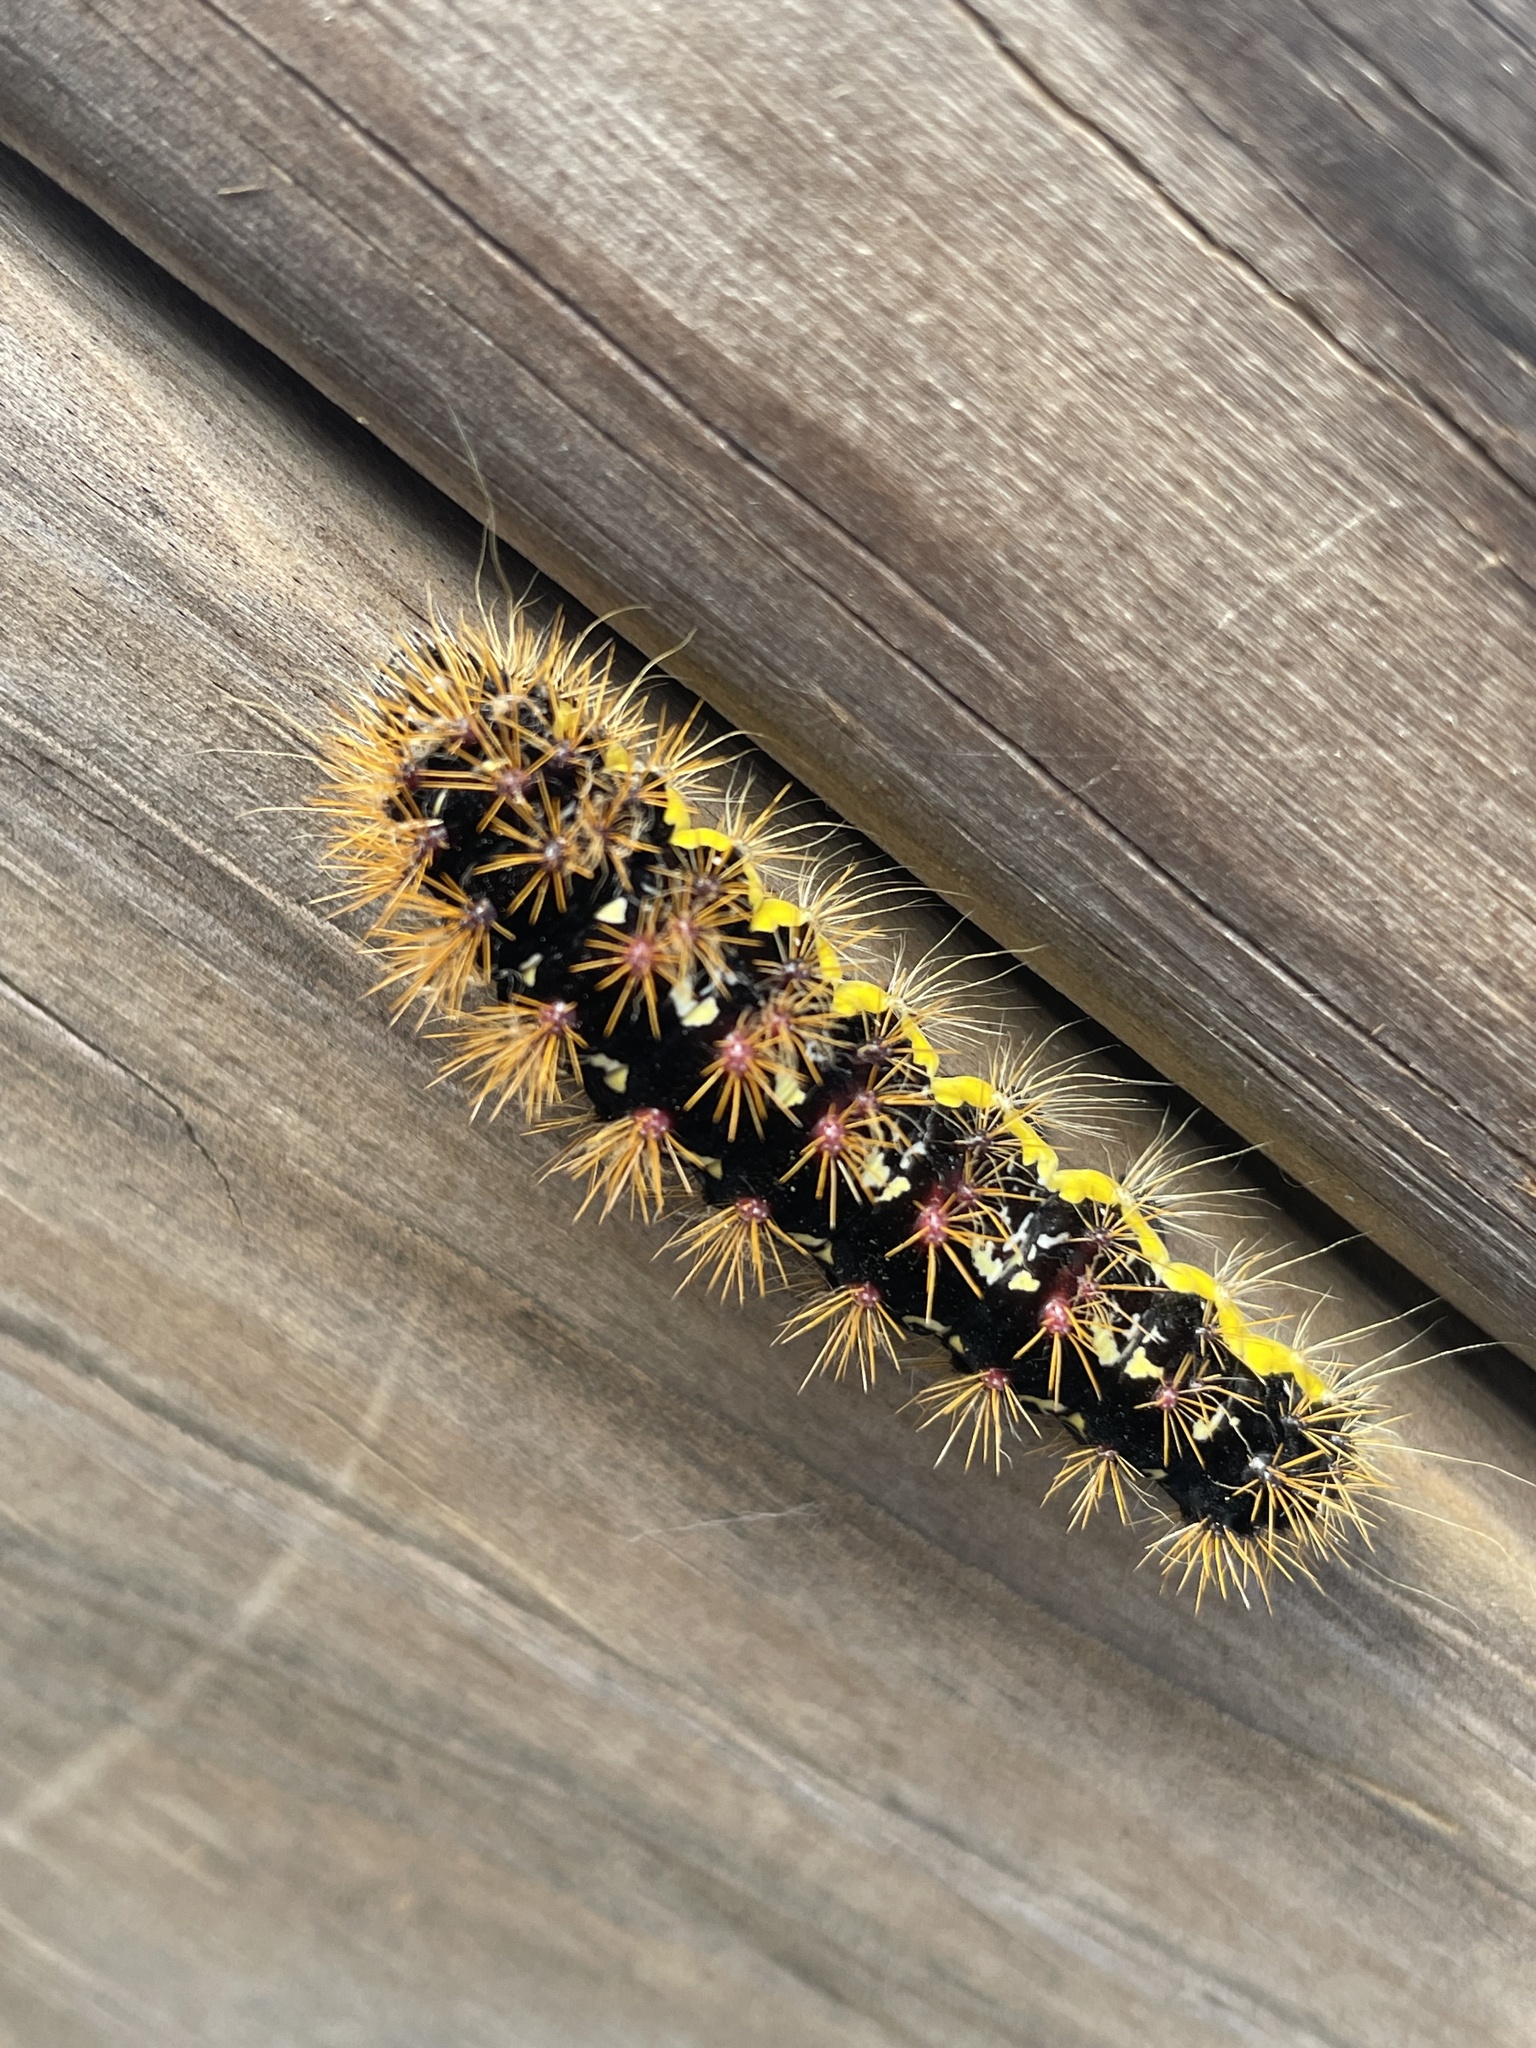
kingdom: Animalia
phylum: Arthropoda
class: Insecta
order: Lepidoptera
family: Noctuidae
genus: Acronicta
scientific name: Acronicta oblinita
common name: Smeared dagger
